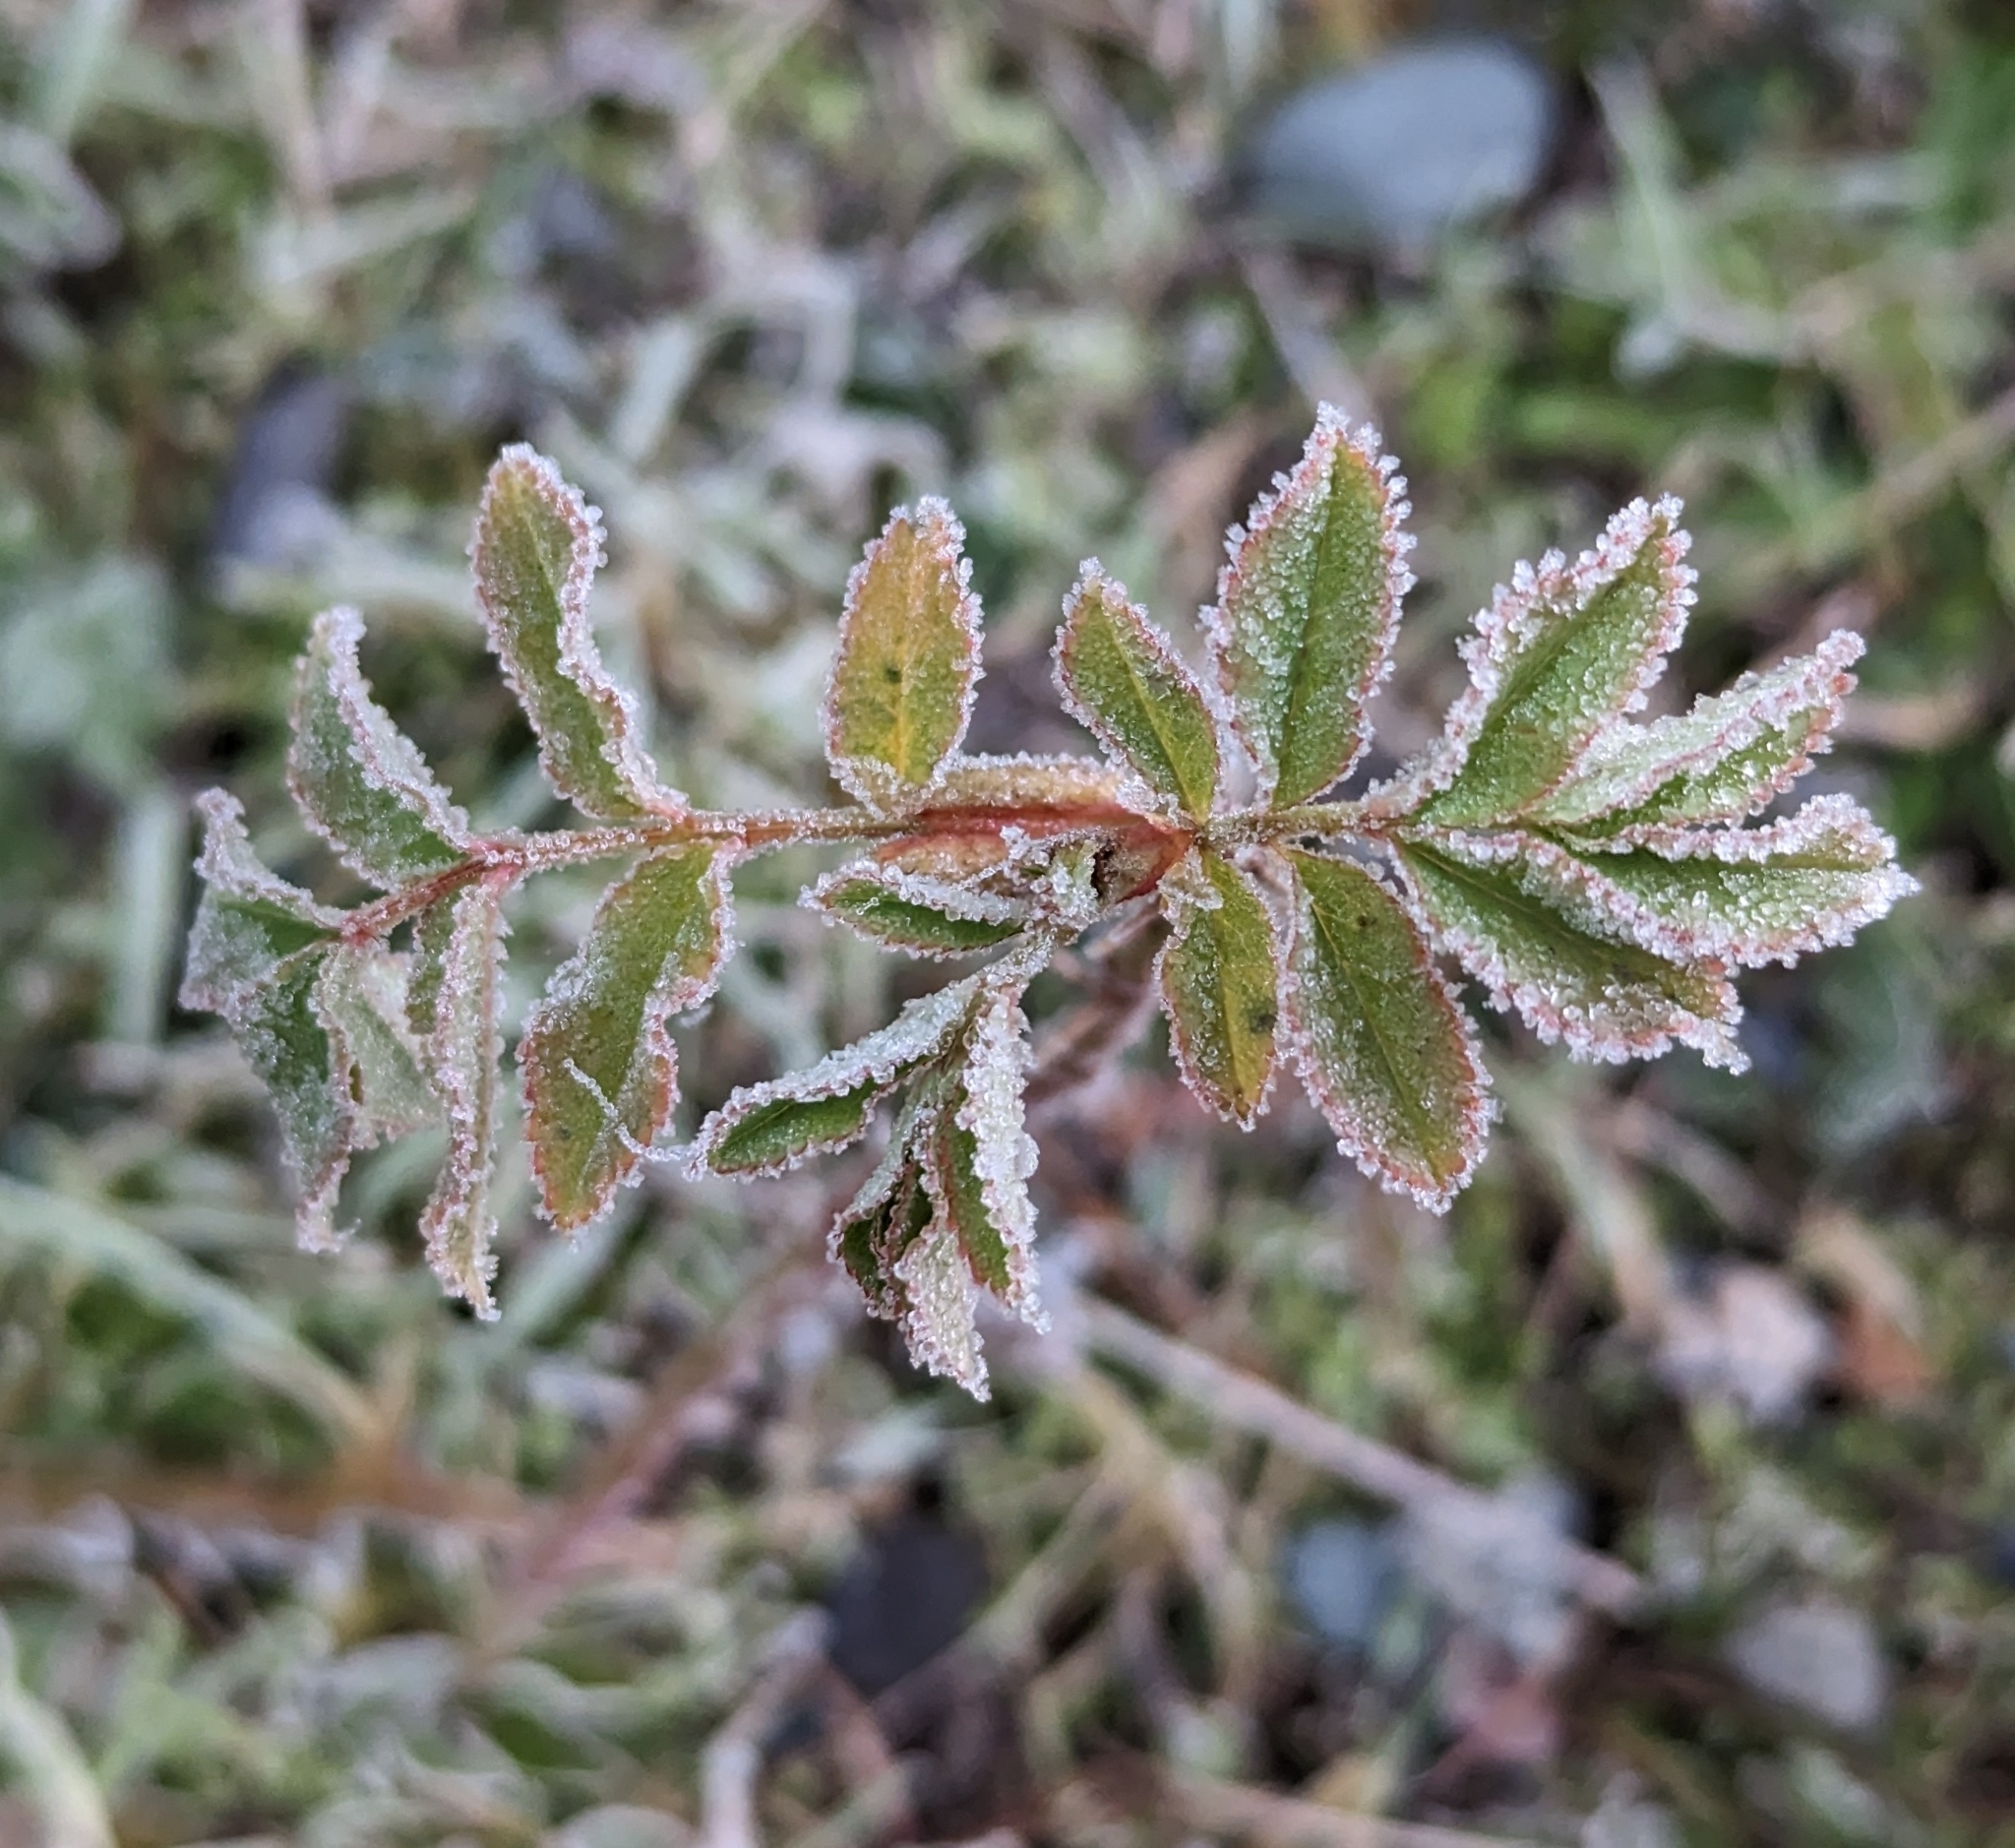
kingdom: Plantae
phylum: Tracheophyta
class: Magnoliopsida
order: Rosales
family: Rosaceae
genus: Rosa
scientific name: Rosa nutkana
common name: Nootka rose
